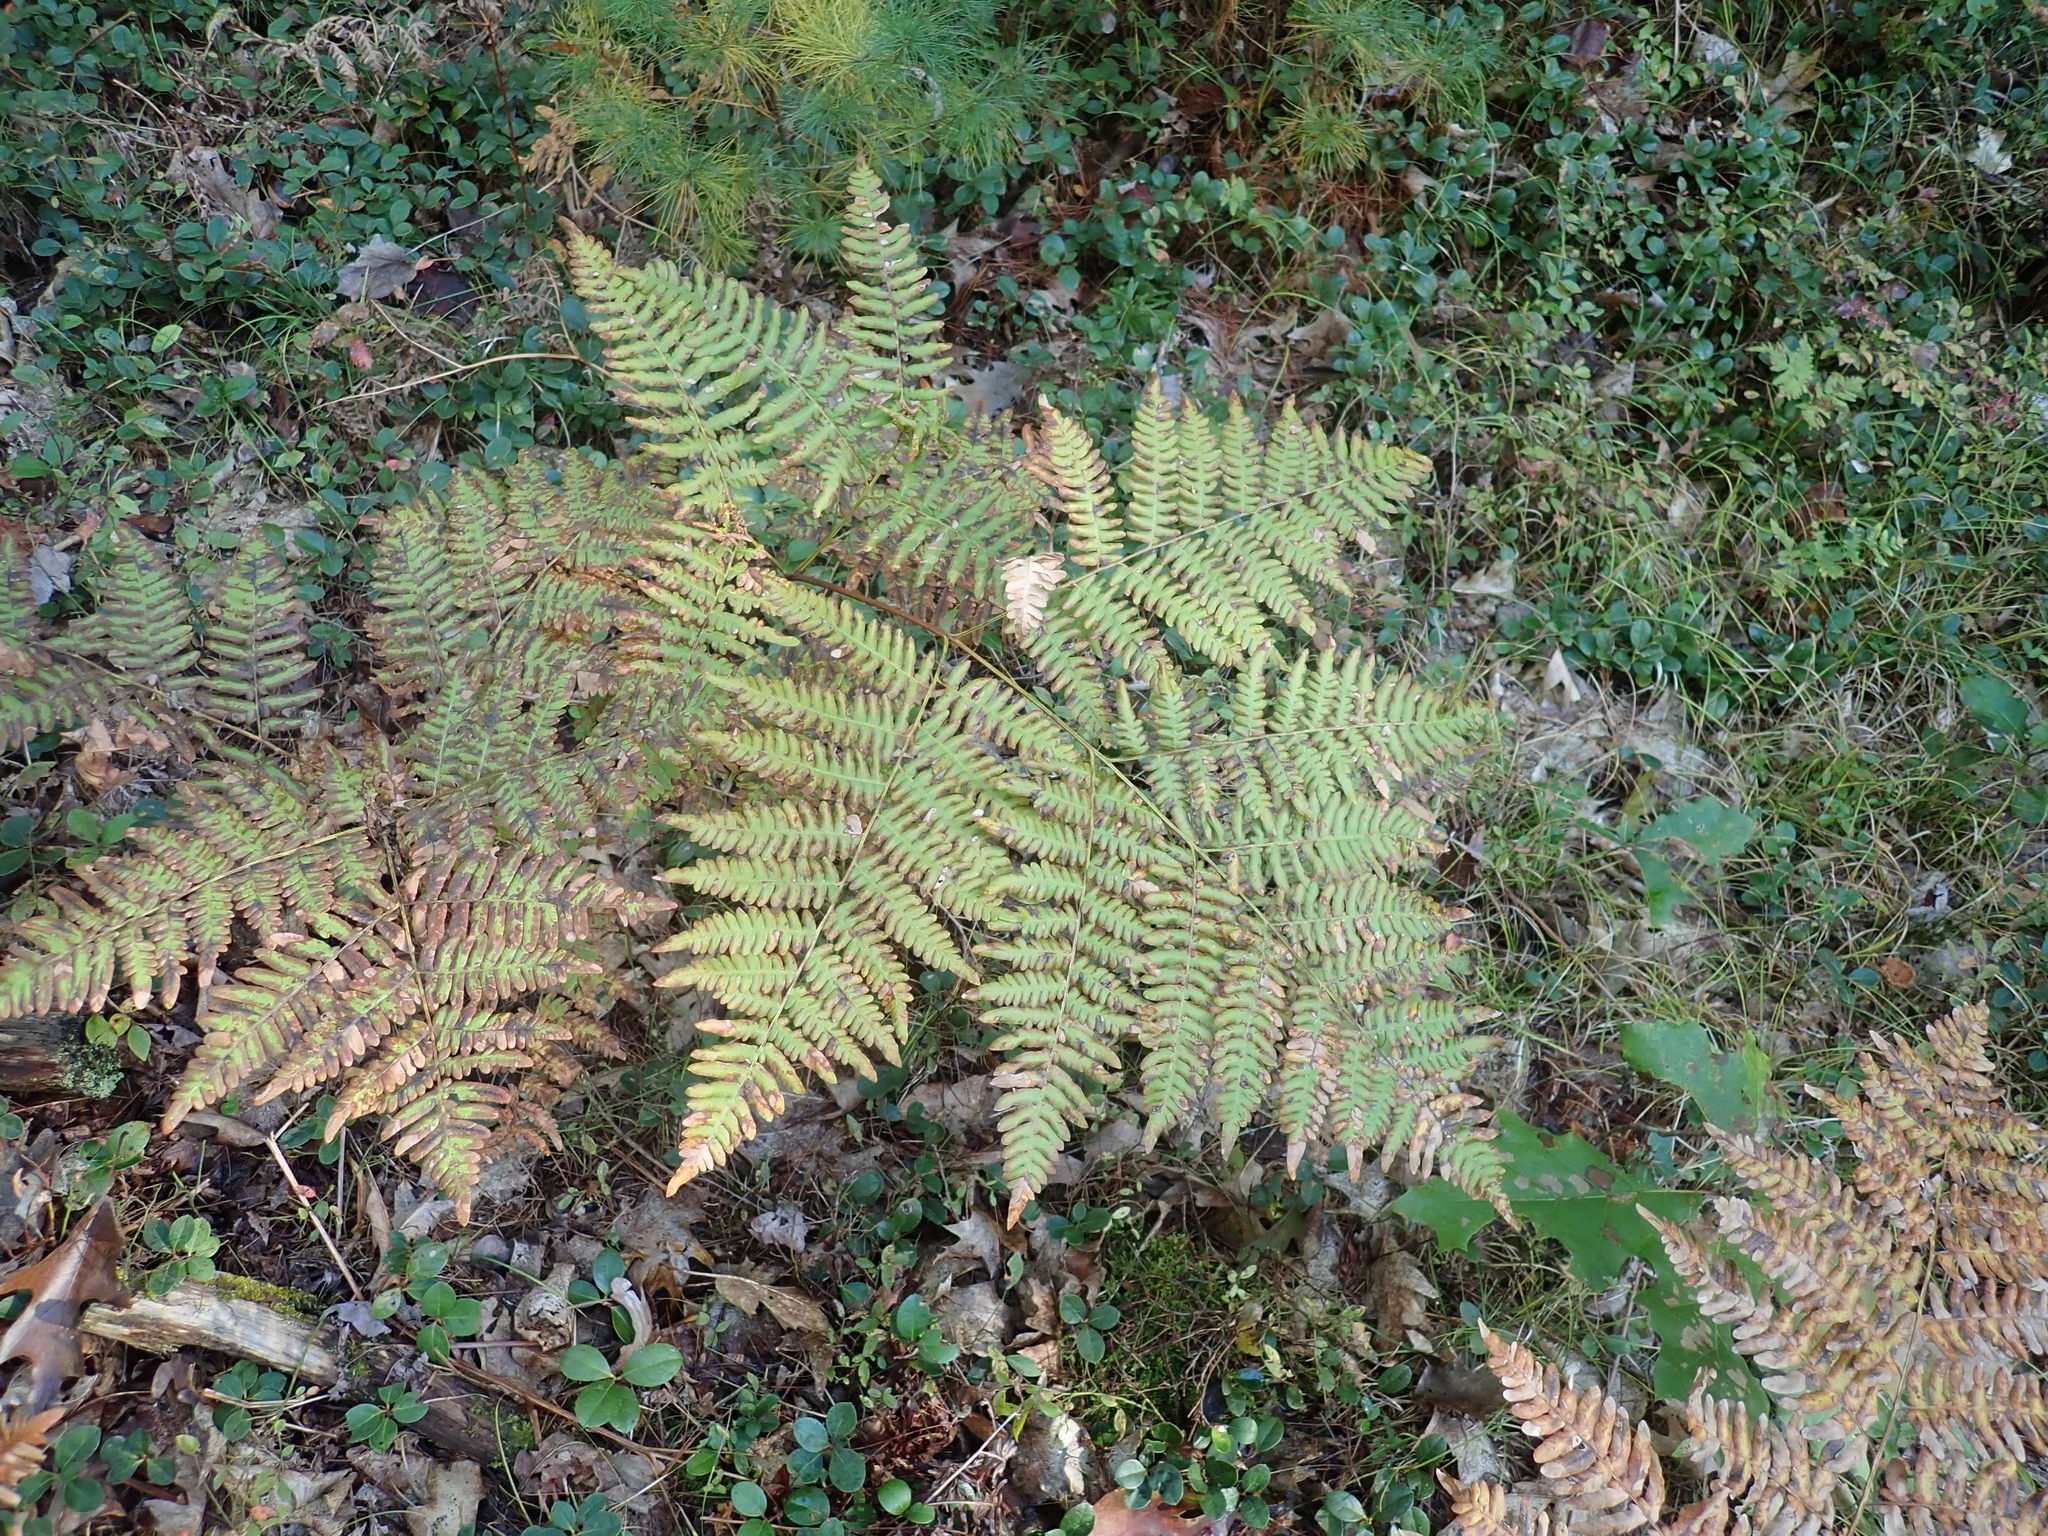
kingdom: Plantae
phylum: Tracheophyta
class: Polypodiopsida
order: Polypodiales
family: Dennstaedtiaceae
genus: Pteridium
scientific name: Pteridium aquilinum
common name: Bracken
